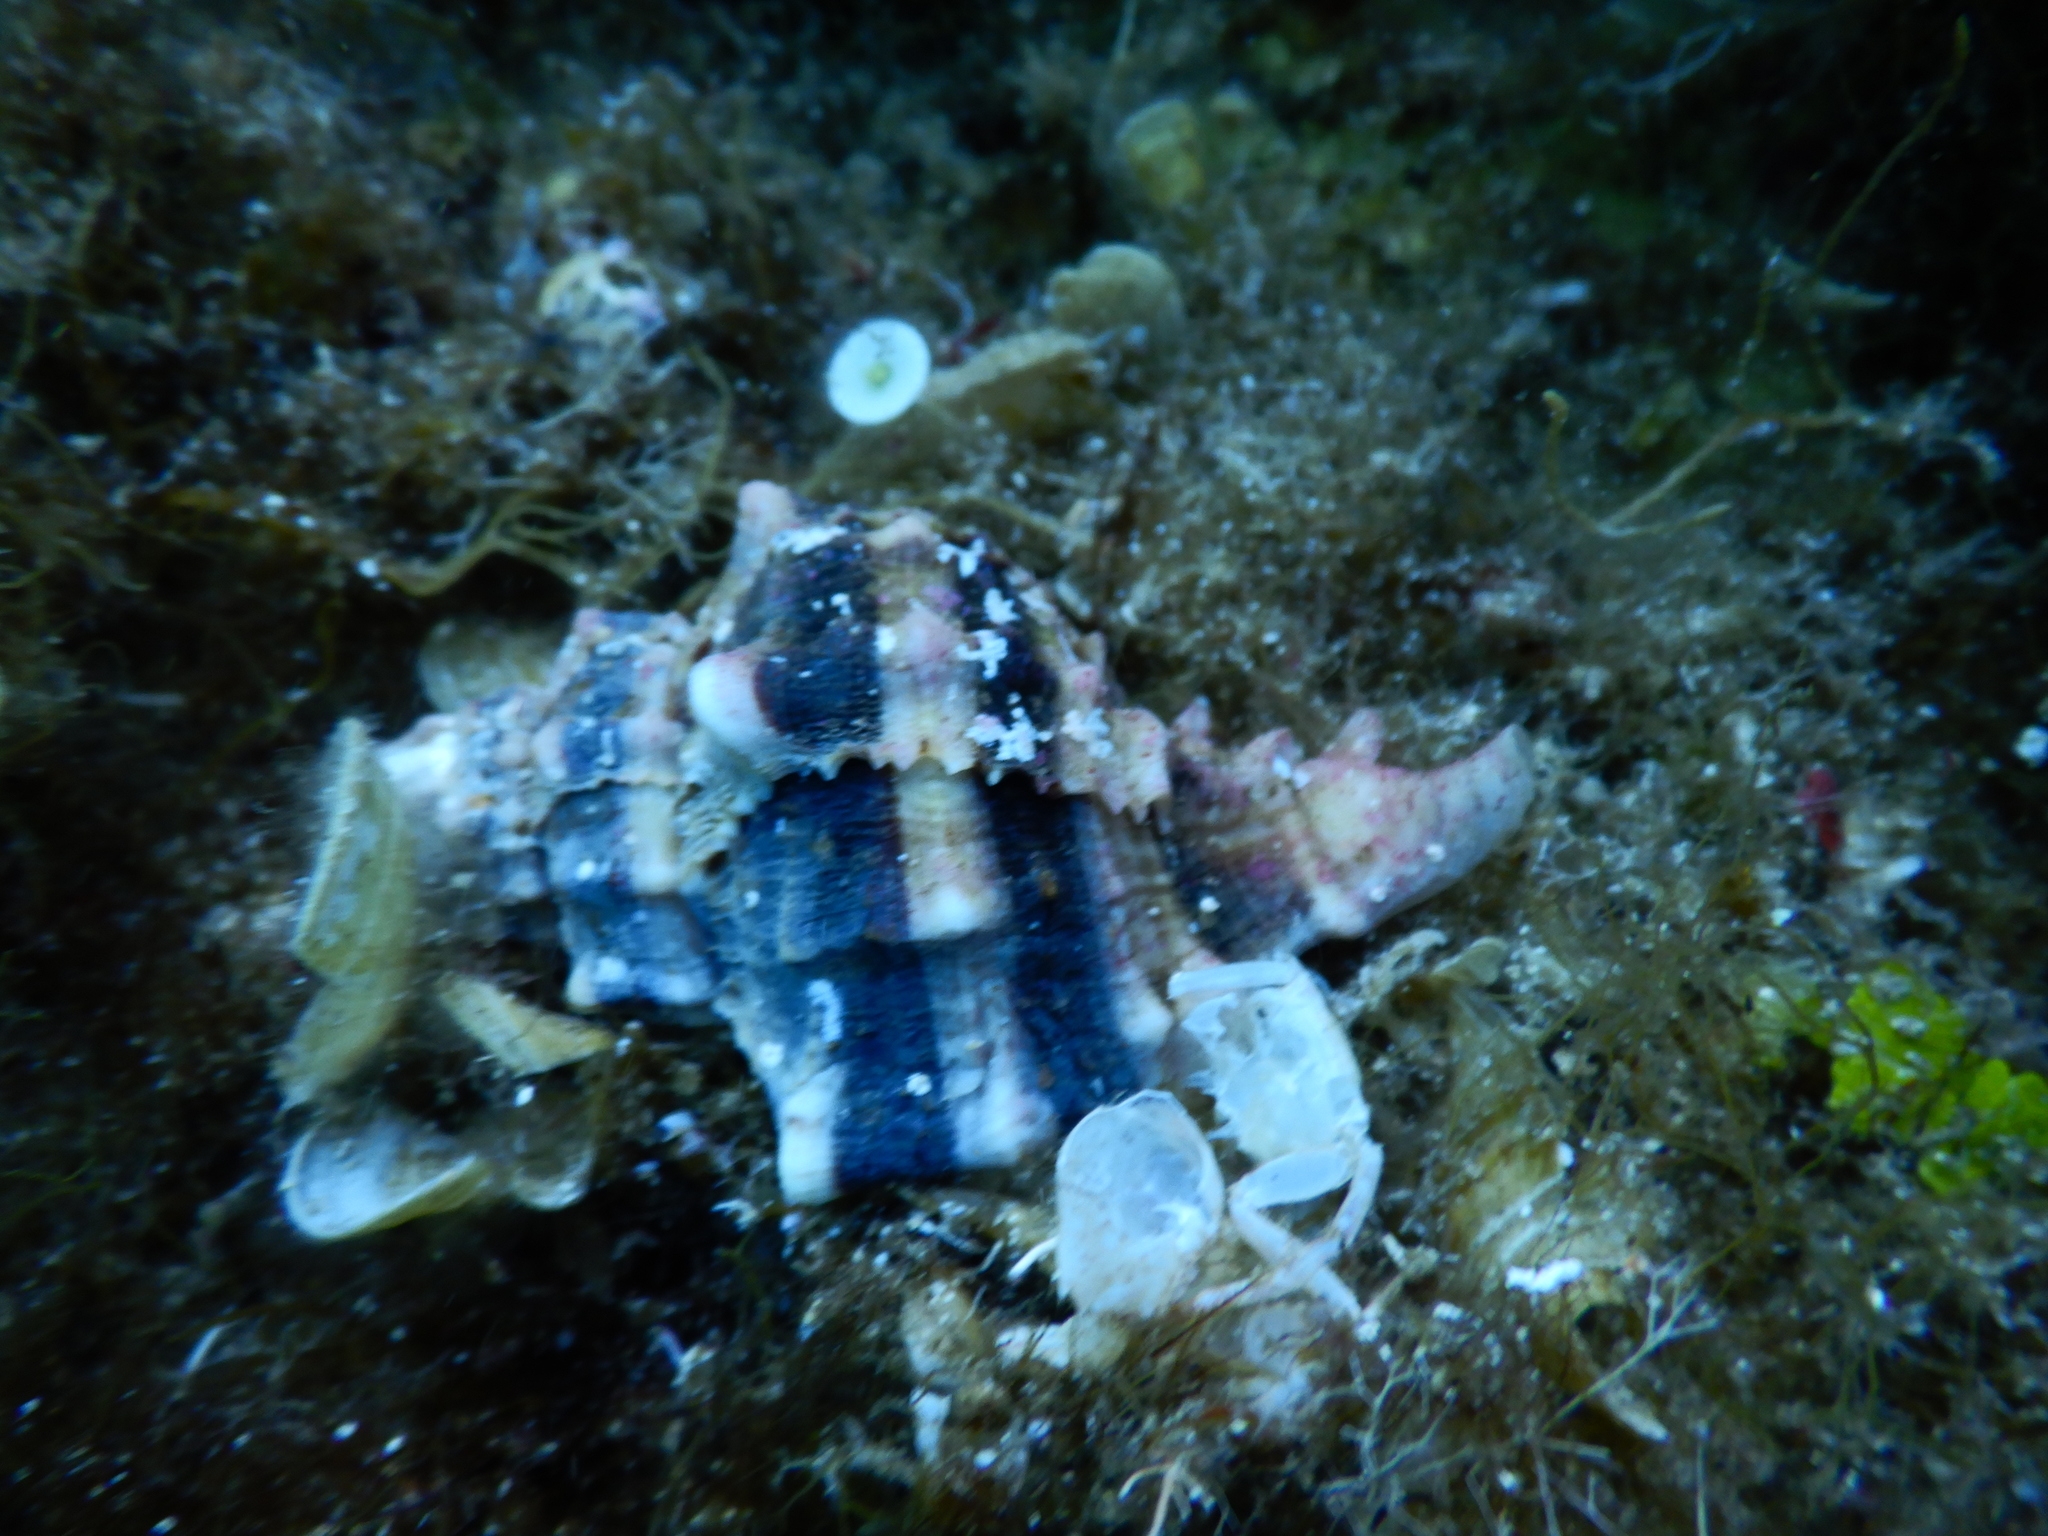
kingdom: Animalia
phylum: Mollusca
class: Gastropoda
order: Neogastropoda
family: Muricidae
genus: Hexaplex
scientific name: Hexaplex trunculus
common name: Banded dye-murex
